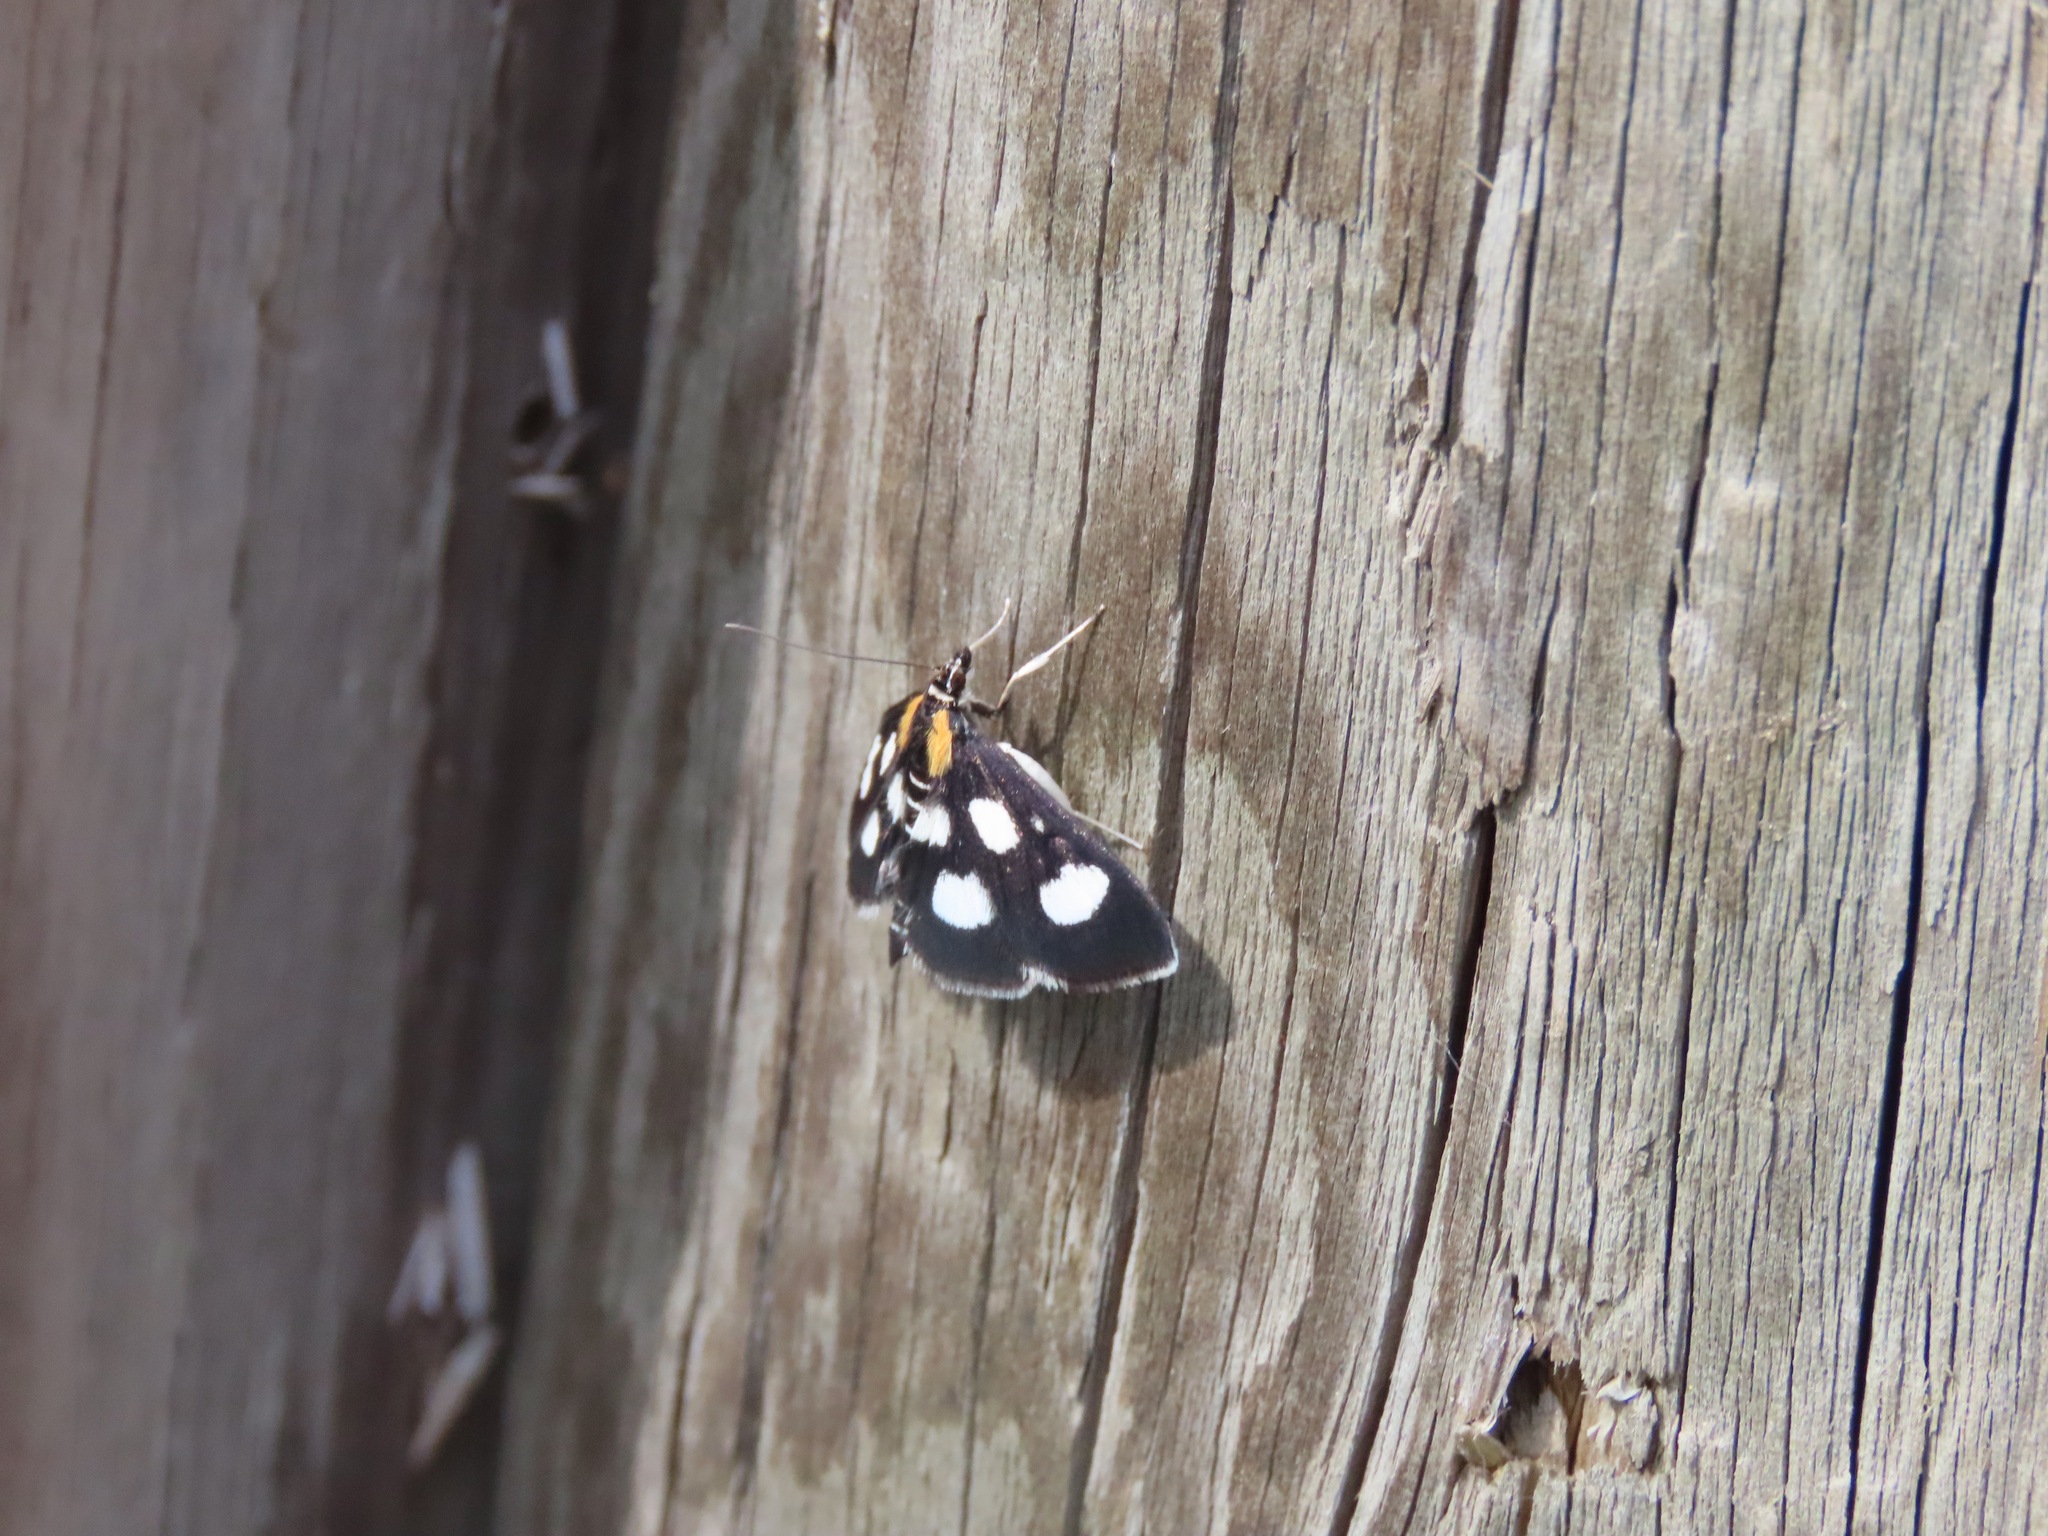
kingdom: Animalia
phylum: Arthropoda
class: Insecta
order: Lepidoptera
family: Crambidae
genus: Anania
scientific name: Anania funebris
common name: White-spotted sable moth
